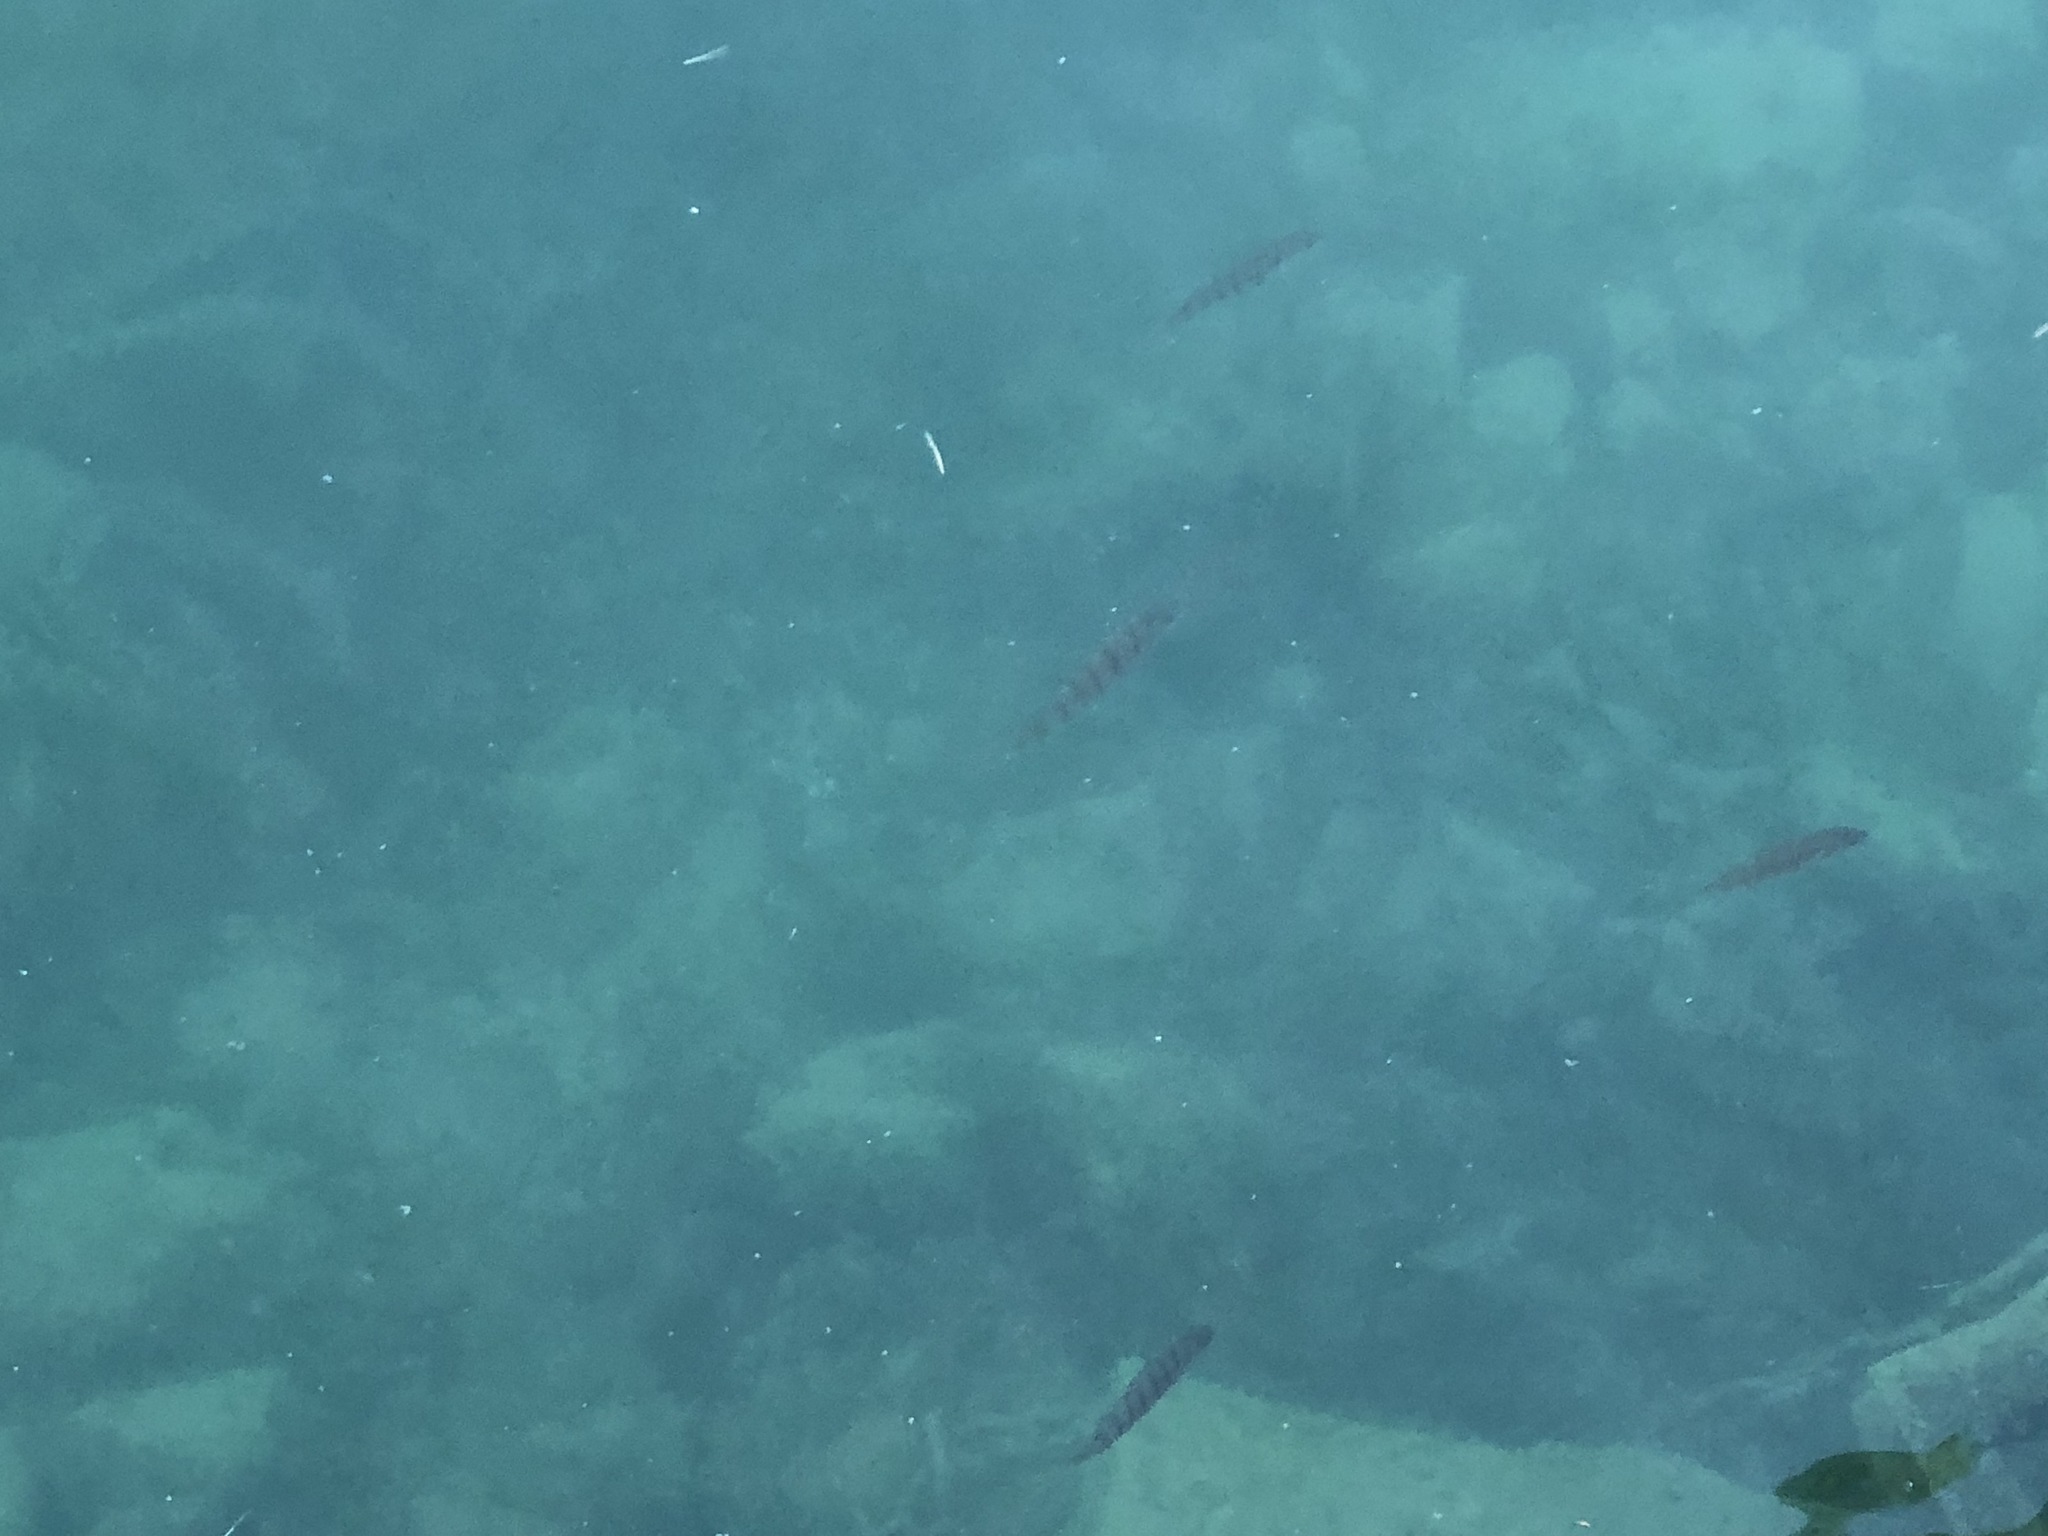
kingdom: Animalia
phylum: Chordata
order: Perciformes
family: Percidae
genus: Perca
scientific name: Perca fluviatilis
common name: Perch
